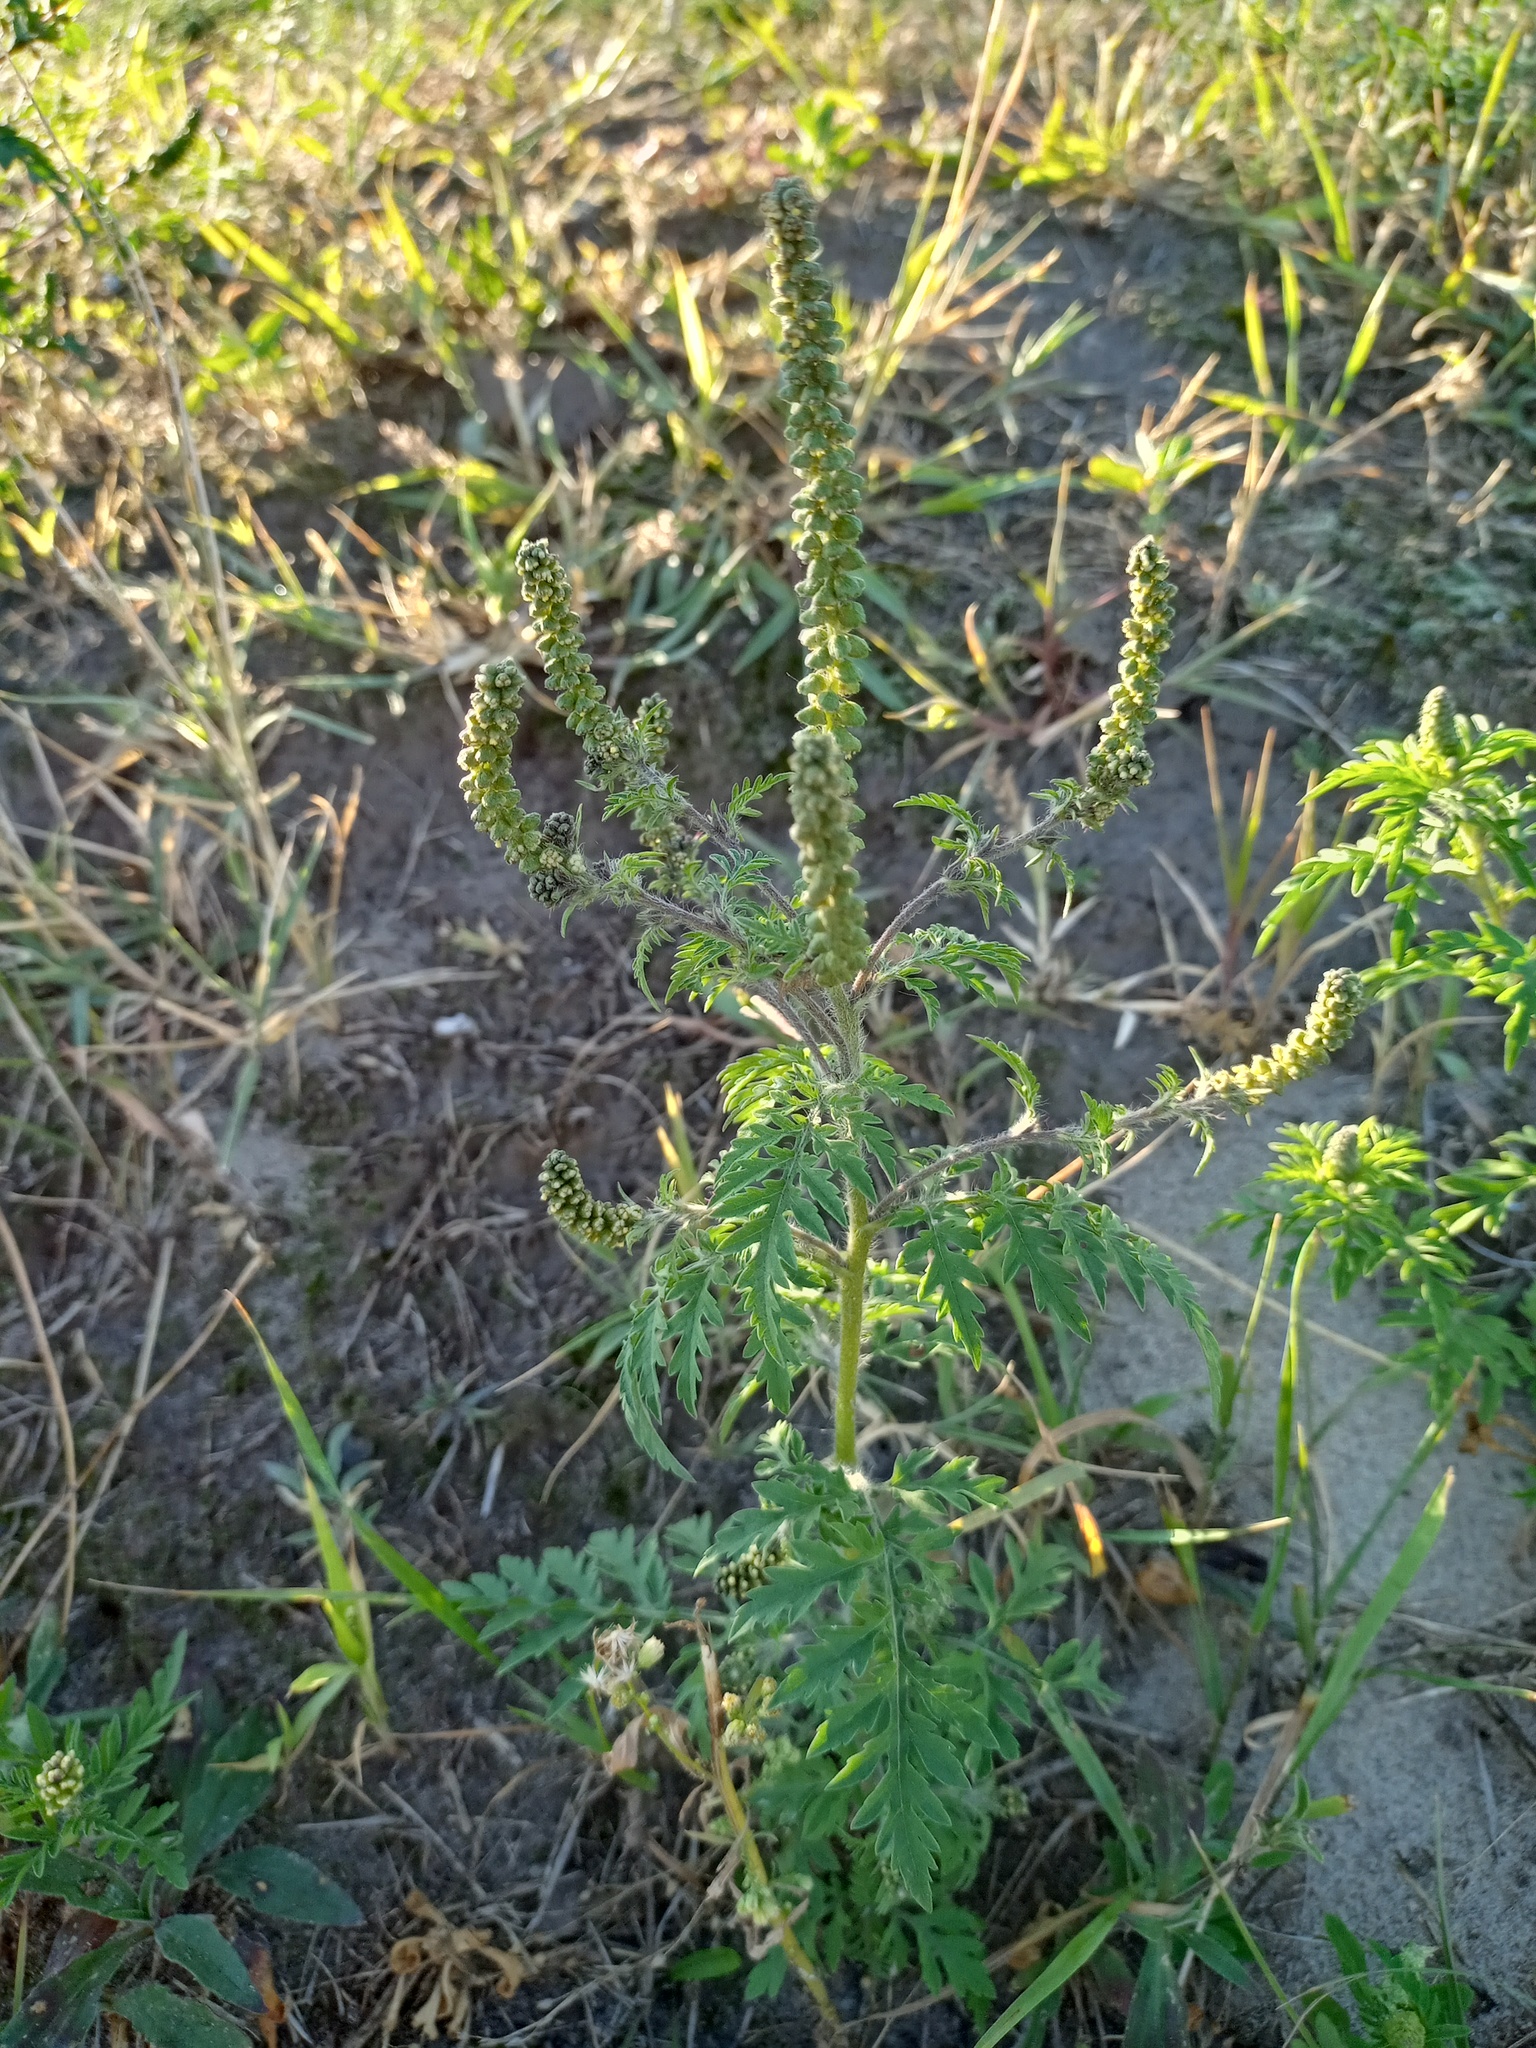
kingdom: Plantae
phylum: Tracheophyta
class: Magnoliopsida
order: Asterales
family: Asteraceae
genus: Ambrosia
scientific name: Ambrosia artemisiifolia
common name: Annual ragweed
